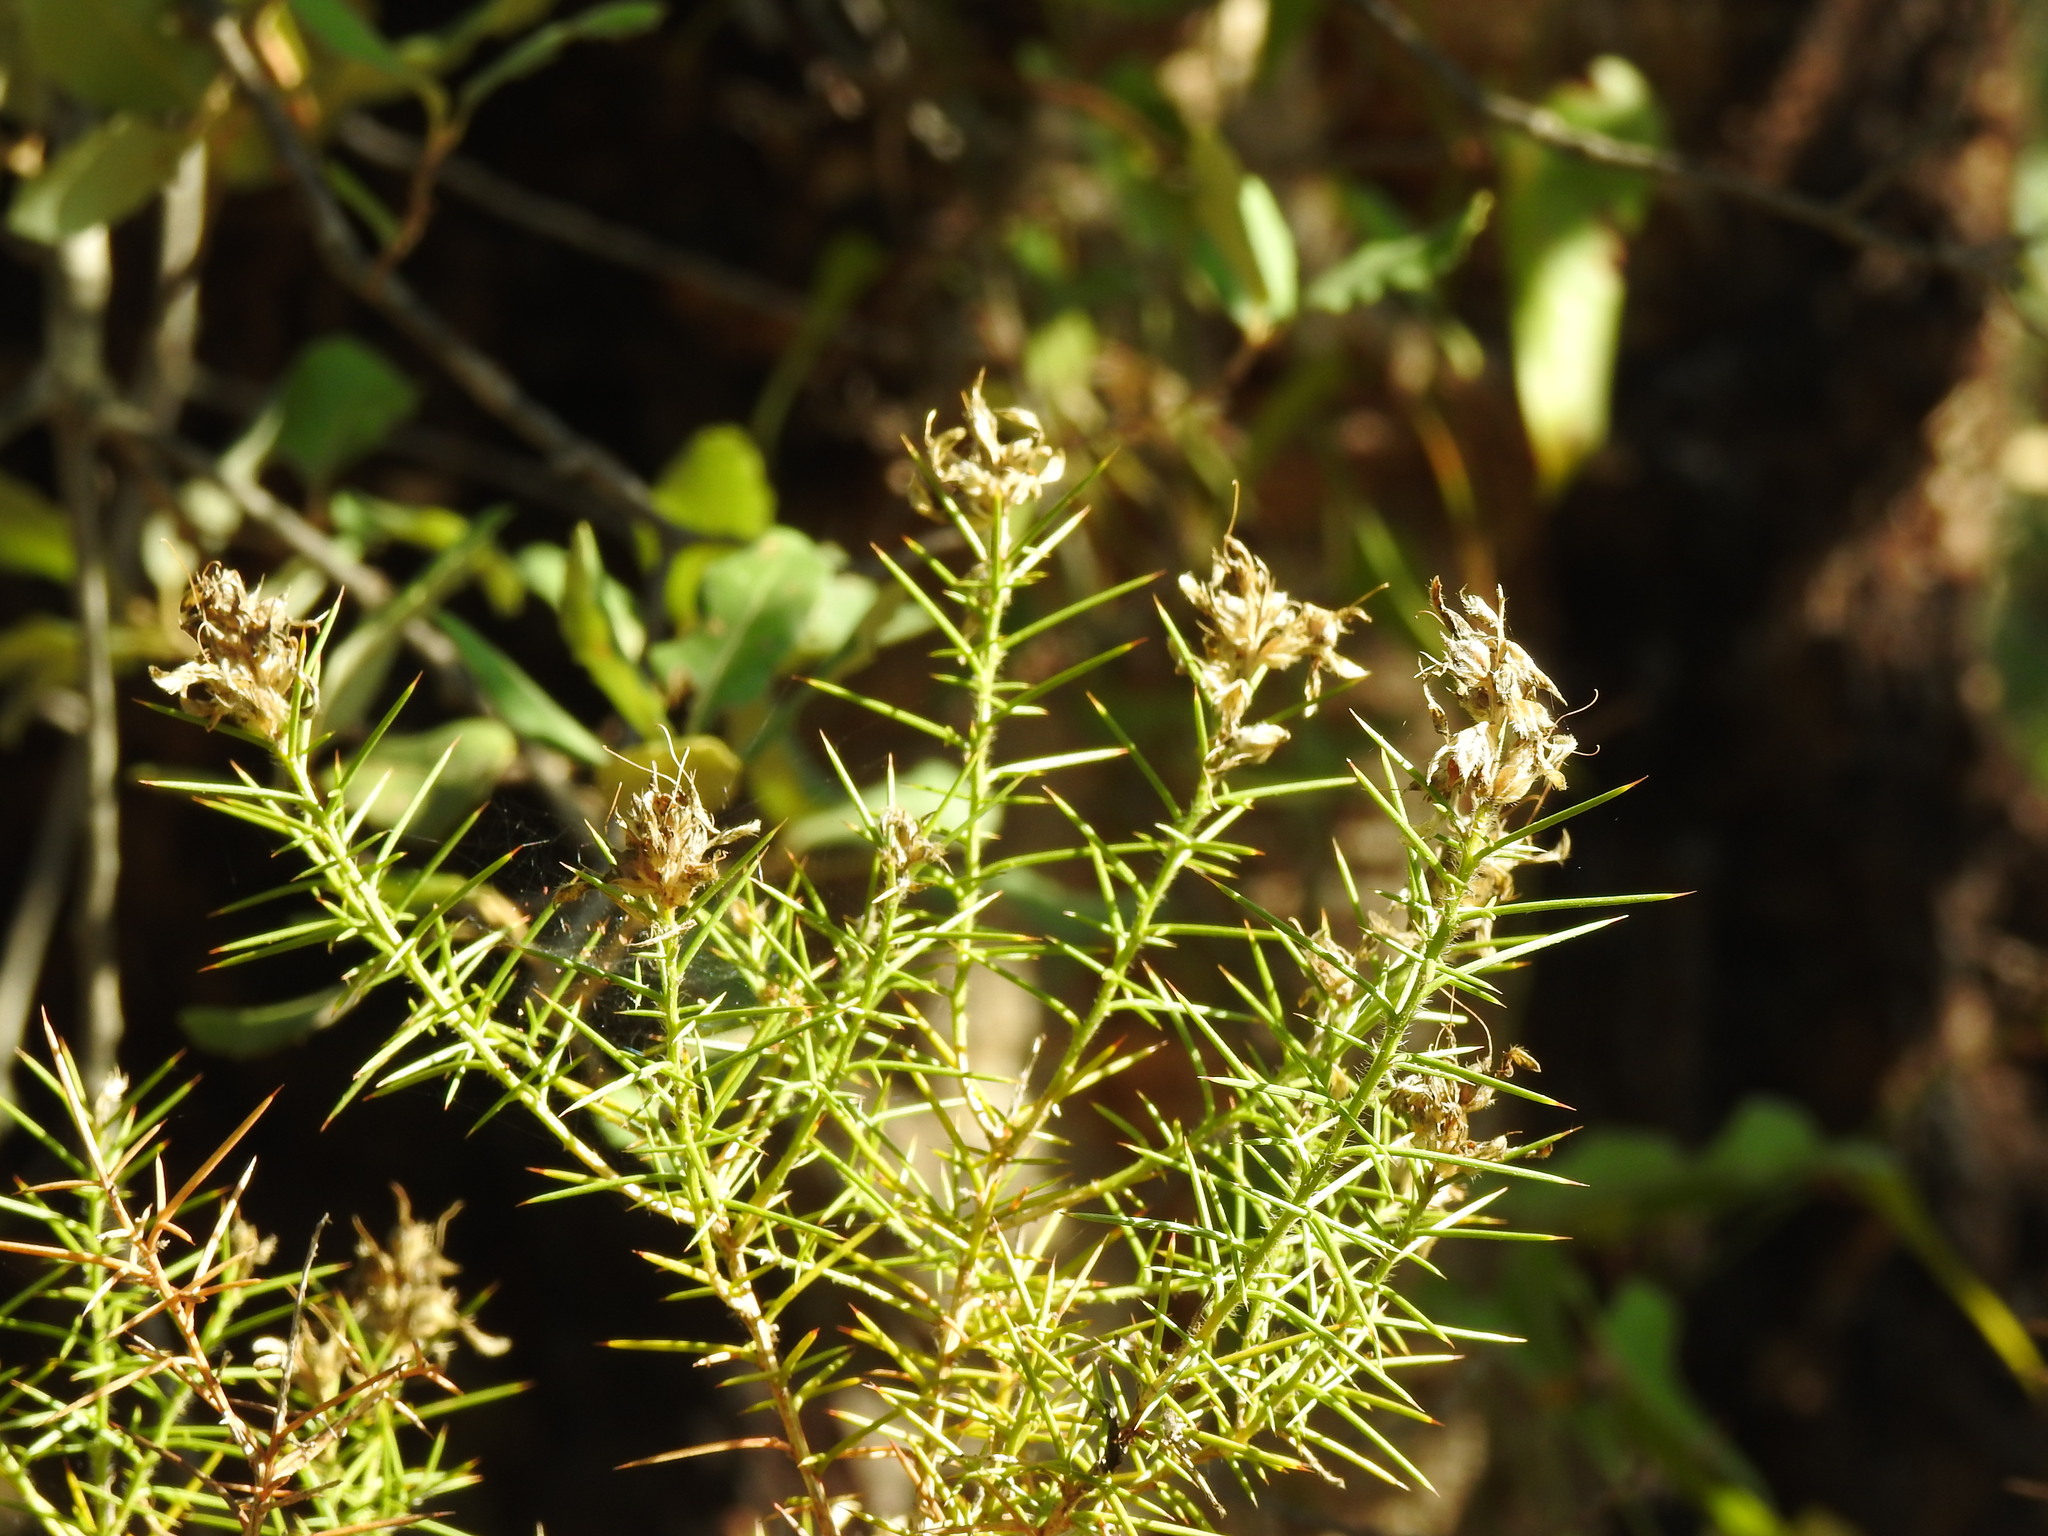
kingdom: Plantae
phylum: Tracheophyta
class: Magnoliopsida
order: Fabales
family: Fabaceae
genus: Genista
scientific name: Genista hirsuta
